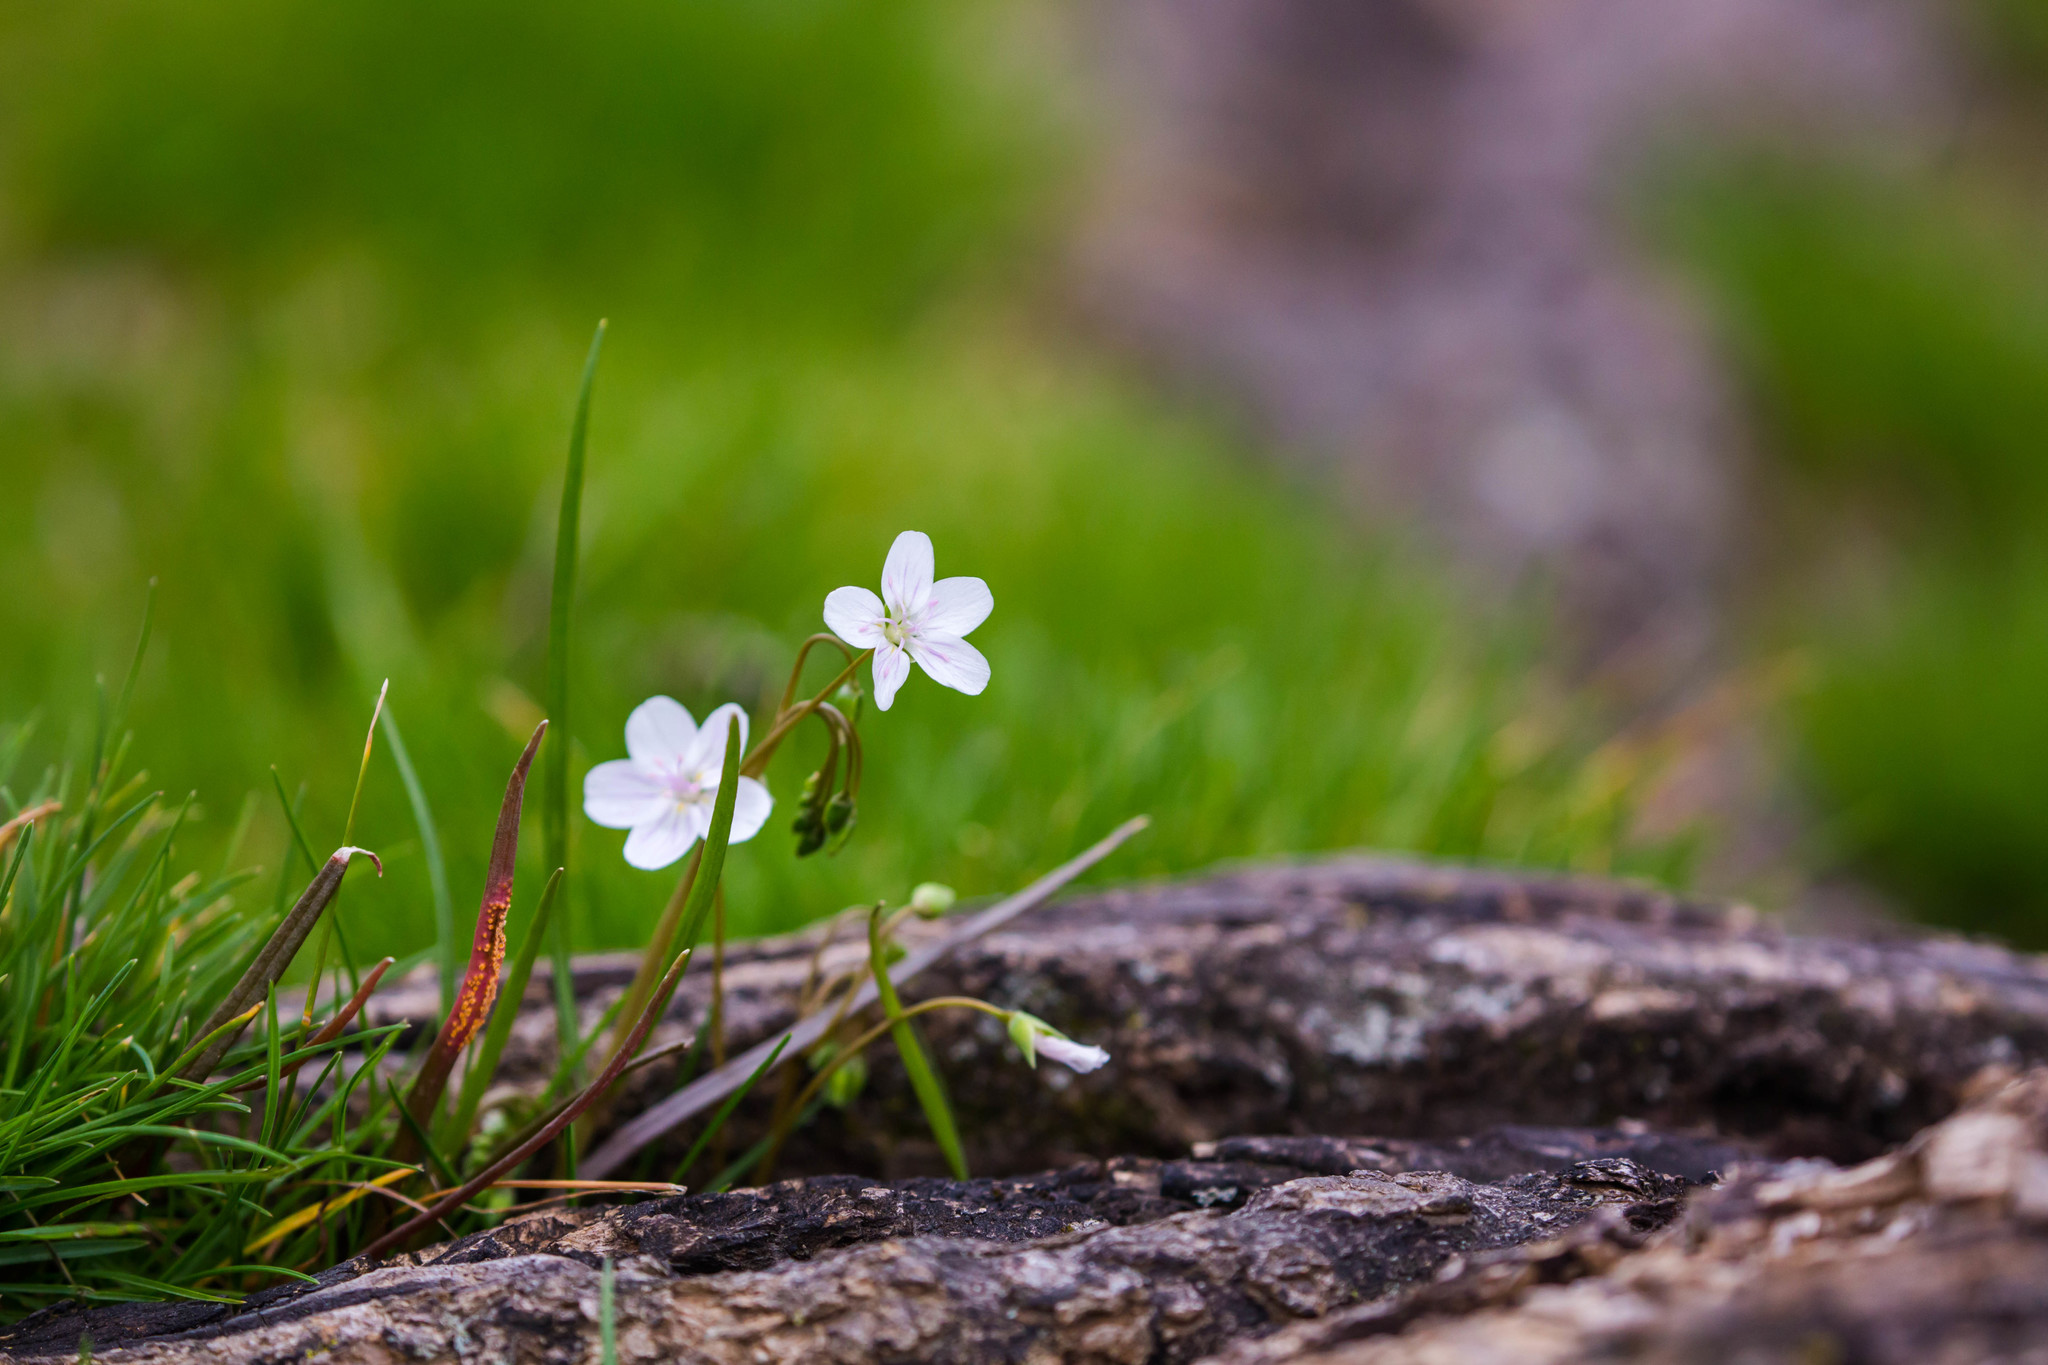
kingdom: Plantae
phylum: Tracheophyta
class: Magnoliopsida
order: Caryophyllales
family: Montiaceae
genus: Claytonia
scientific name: Claytonia virginica
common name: Virginia springbeauty
